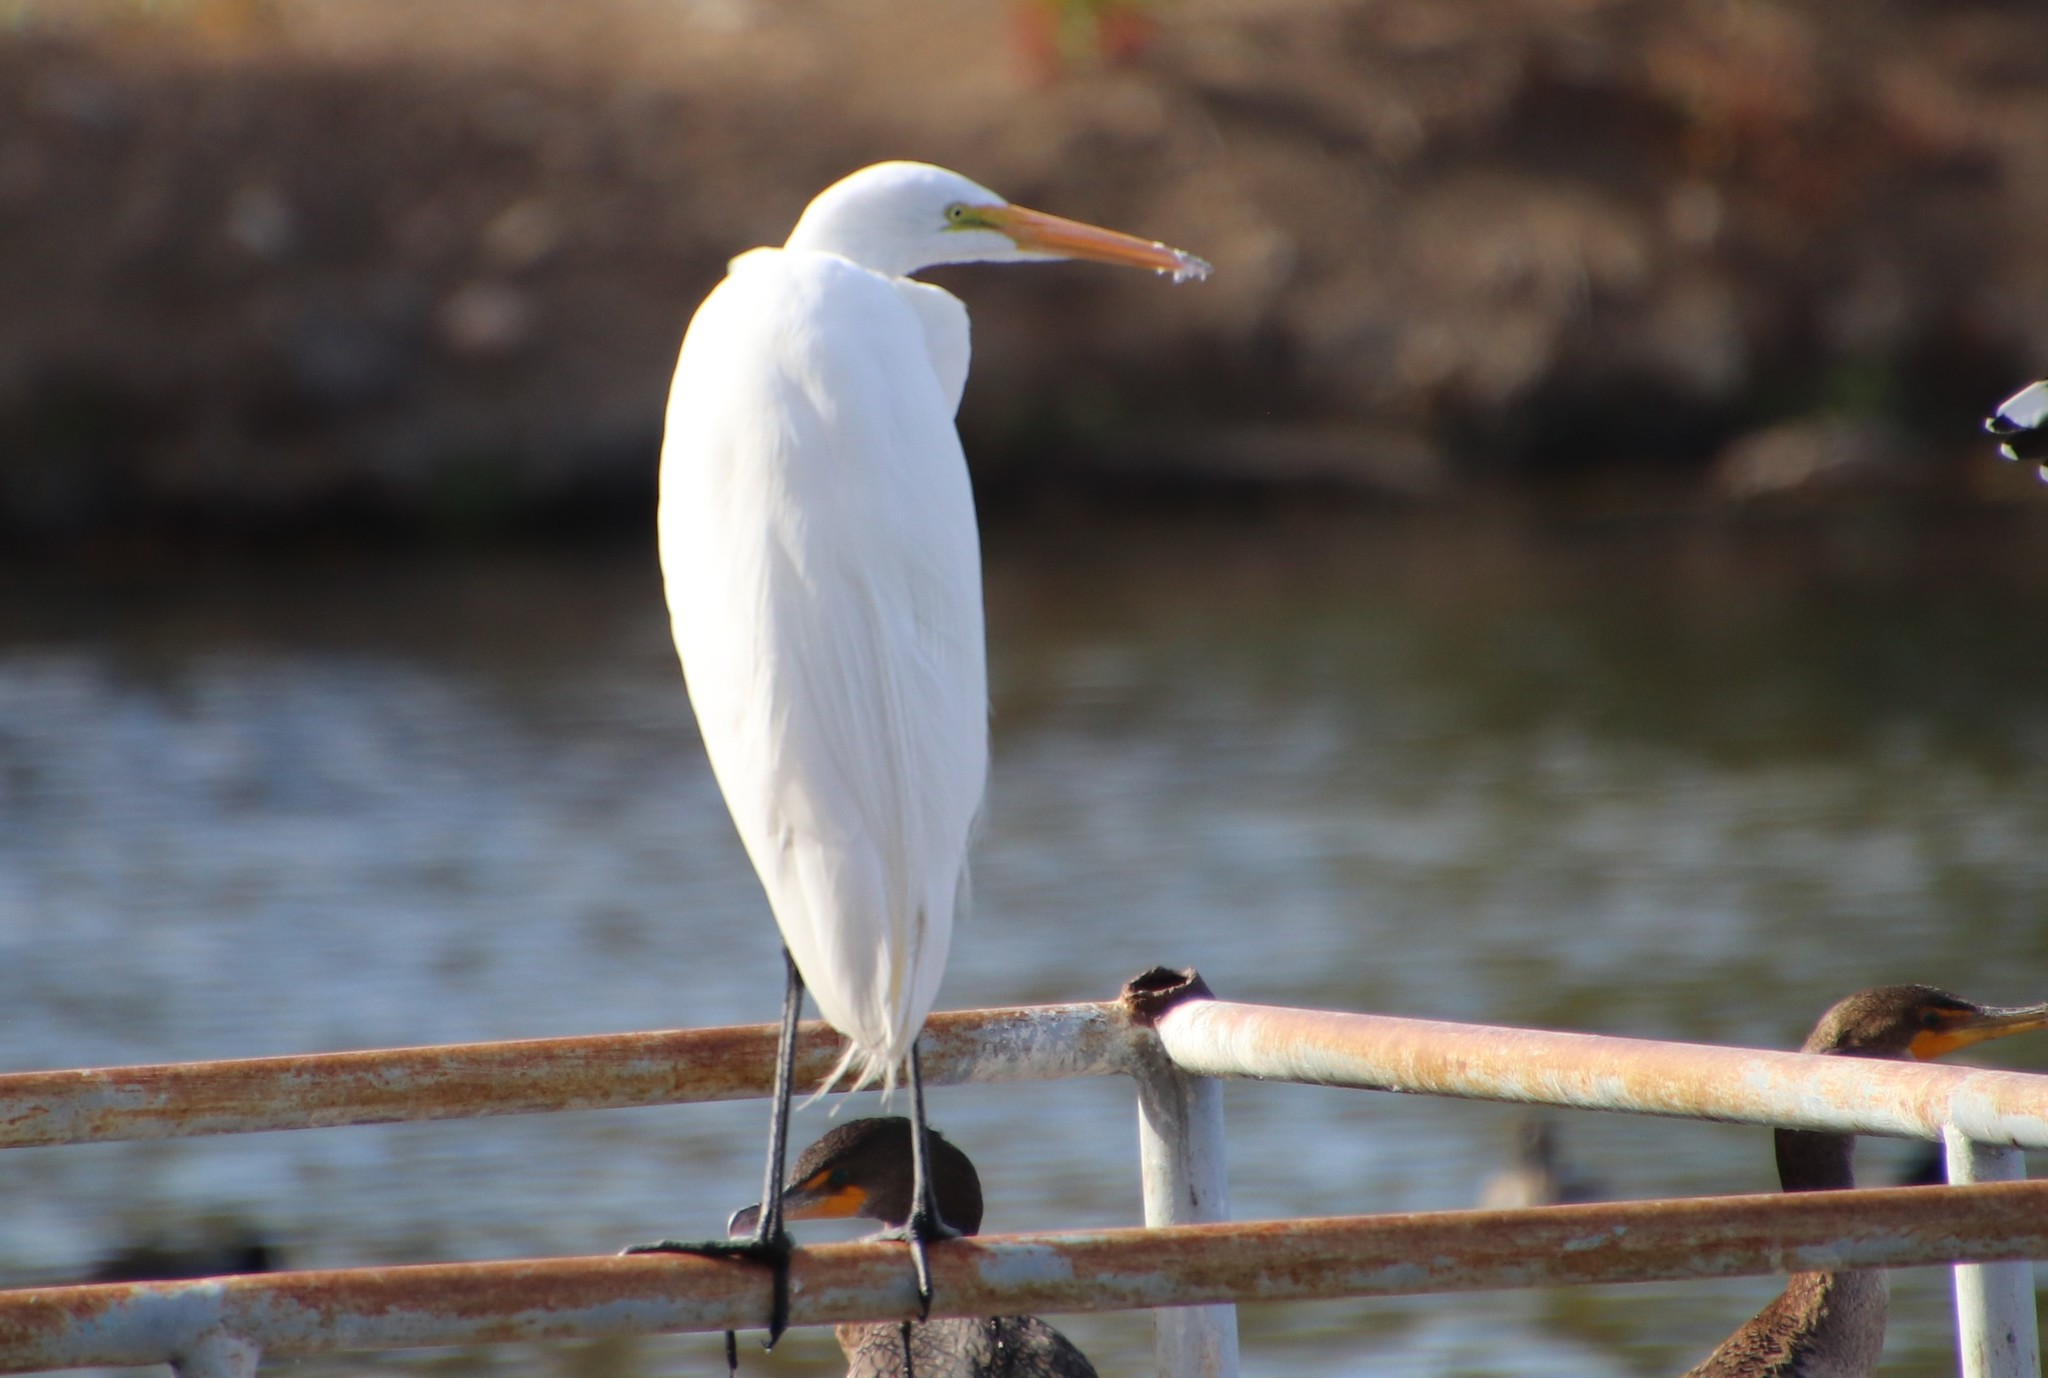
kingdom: Animalia
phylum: Chordata
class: Aves
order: Pelecaniformes
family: Ardeidae
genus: Ardea
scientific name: Ardea alba
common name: Great egret
